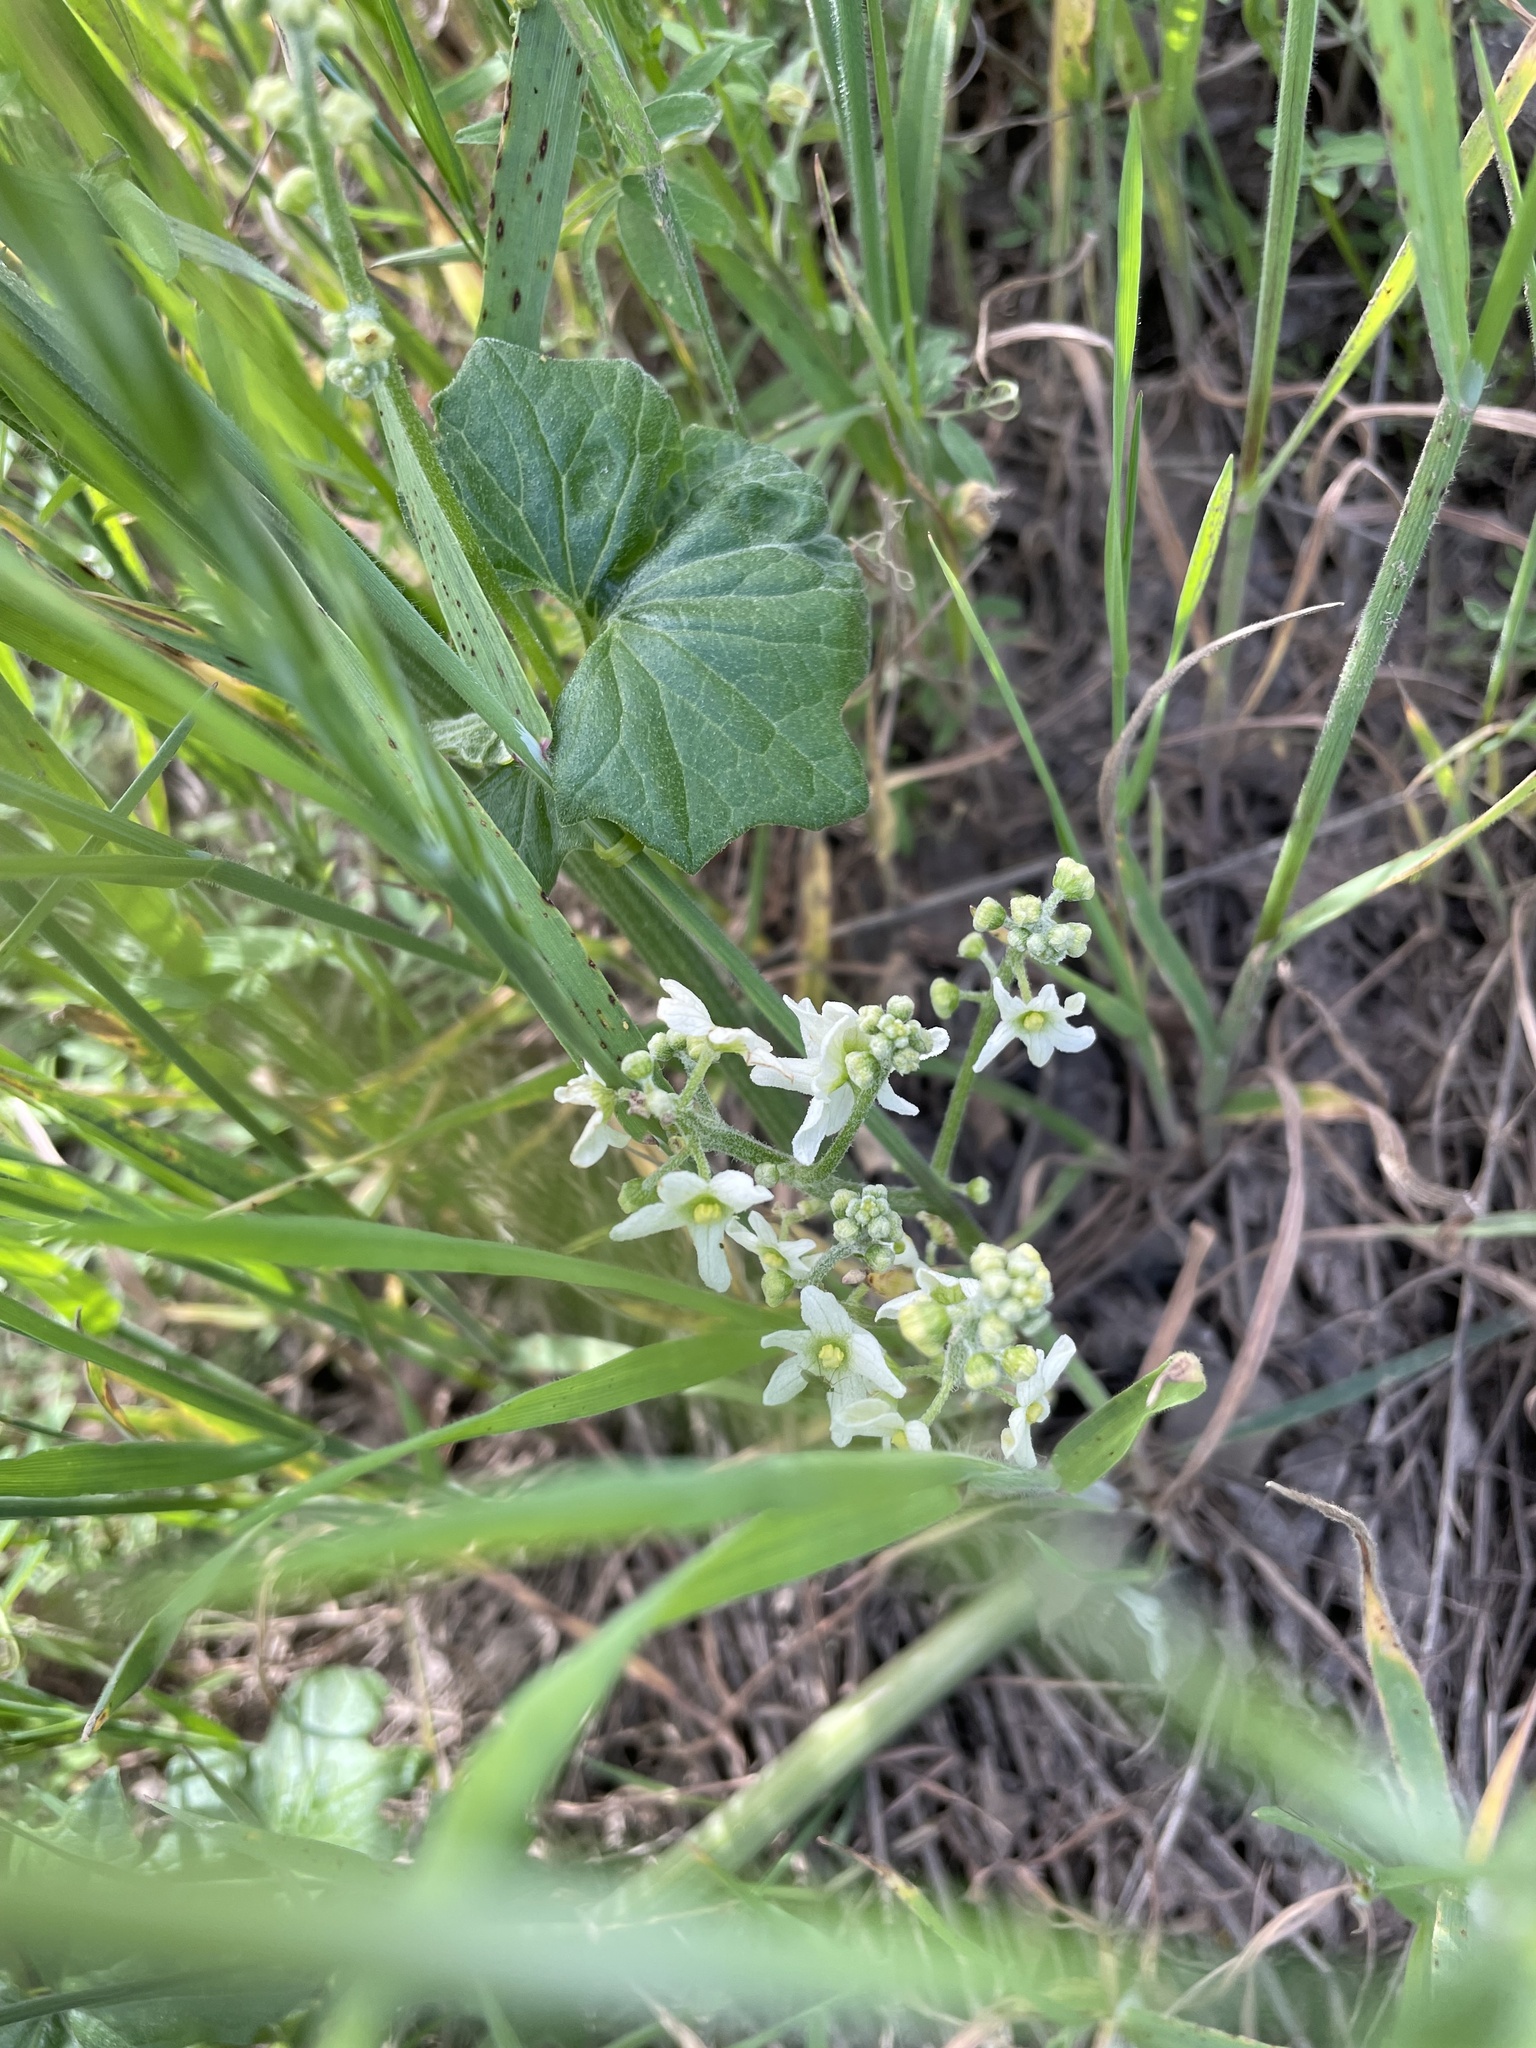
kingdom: Plantae
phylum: Tracheophyta
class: Magnoliopsida
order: Cucurbitales
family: Cucurbitaceae
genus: Marah
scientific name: Marah fabacea
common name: California manroot
